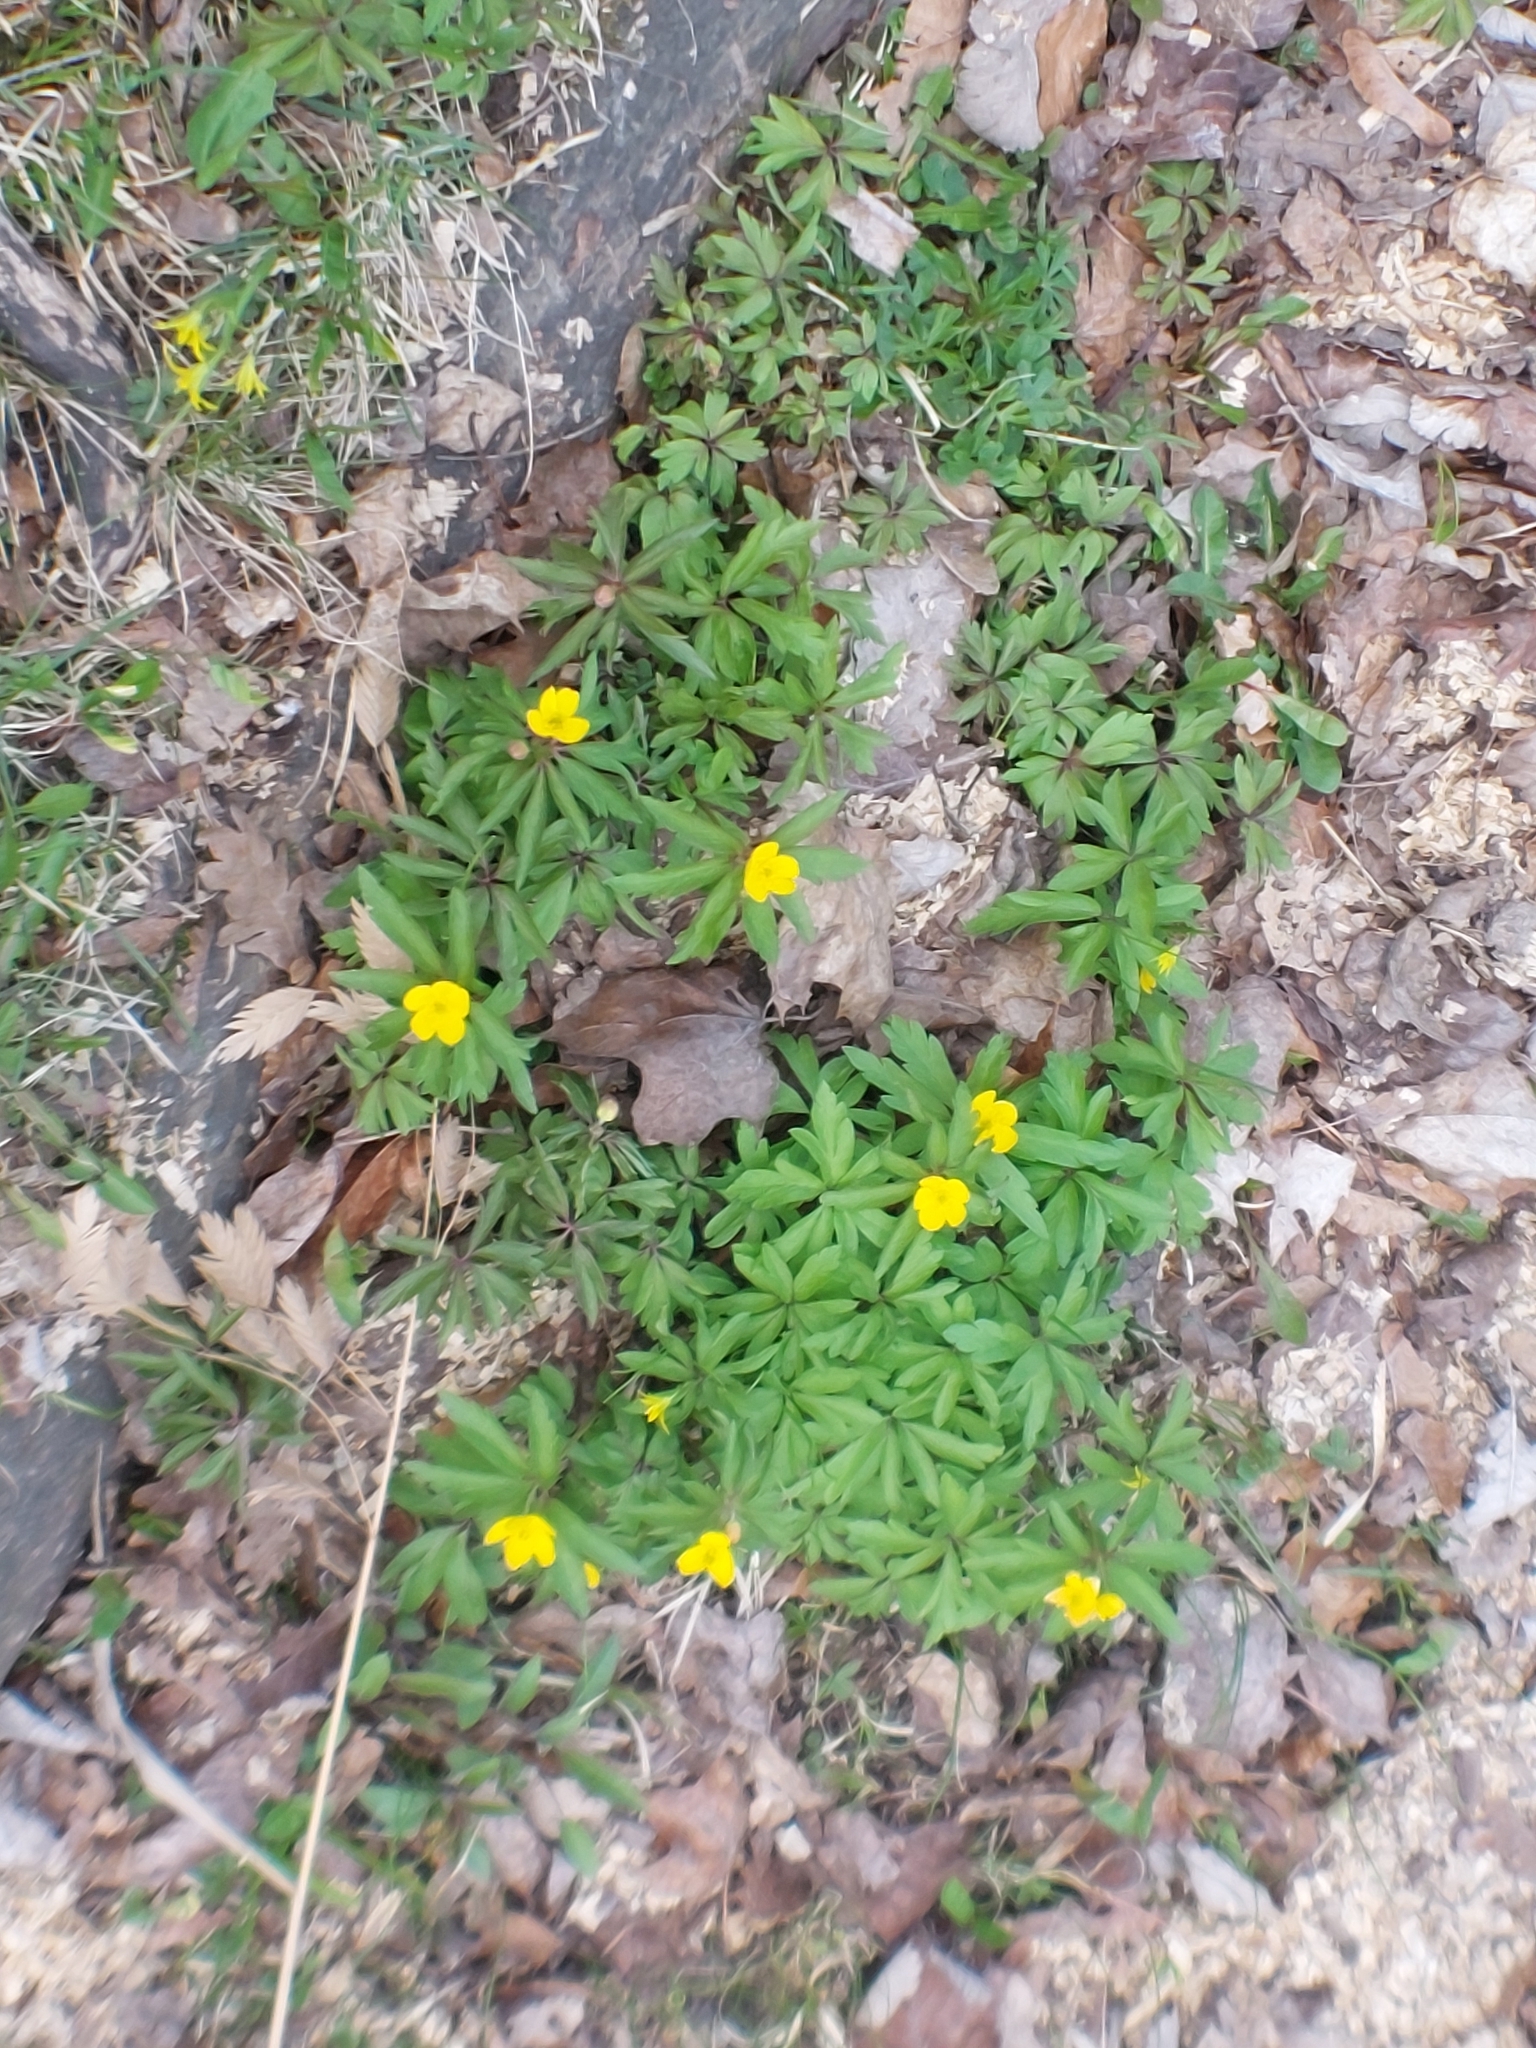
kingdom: Plantae
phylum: Tracheophyta
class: Magnoliopsida
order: Ranunculales
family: Ranunculaceae
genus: Anemone
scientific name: Anemone ranunculoides
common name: Yellow anemone
